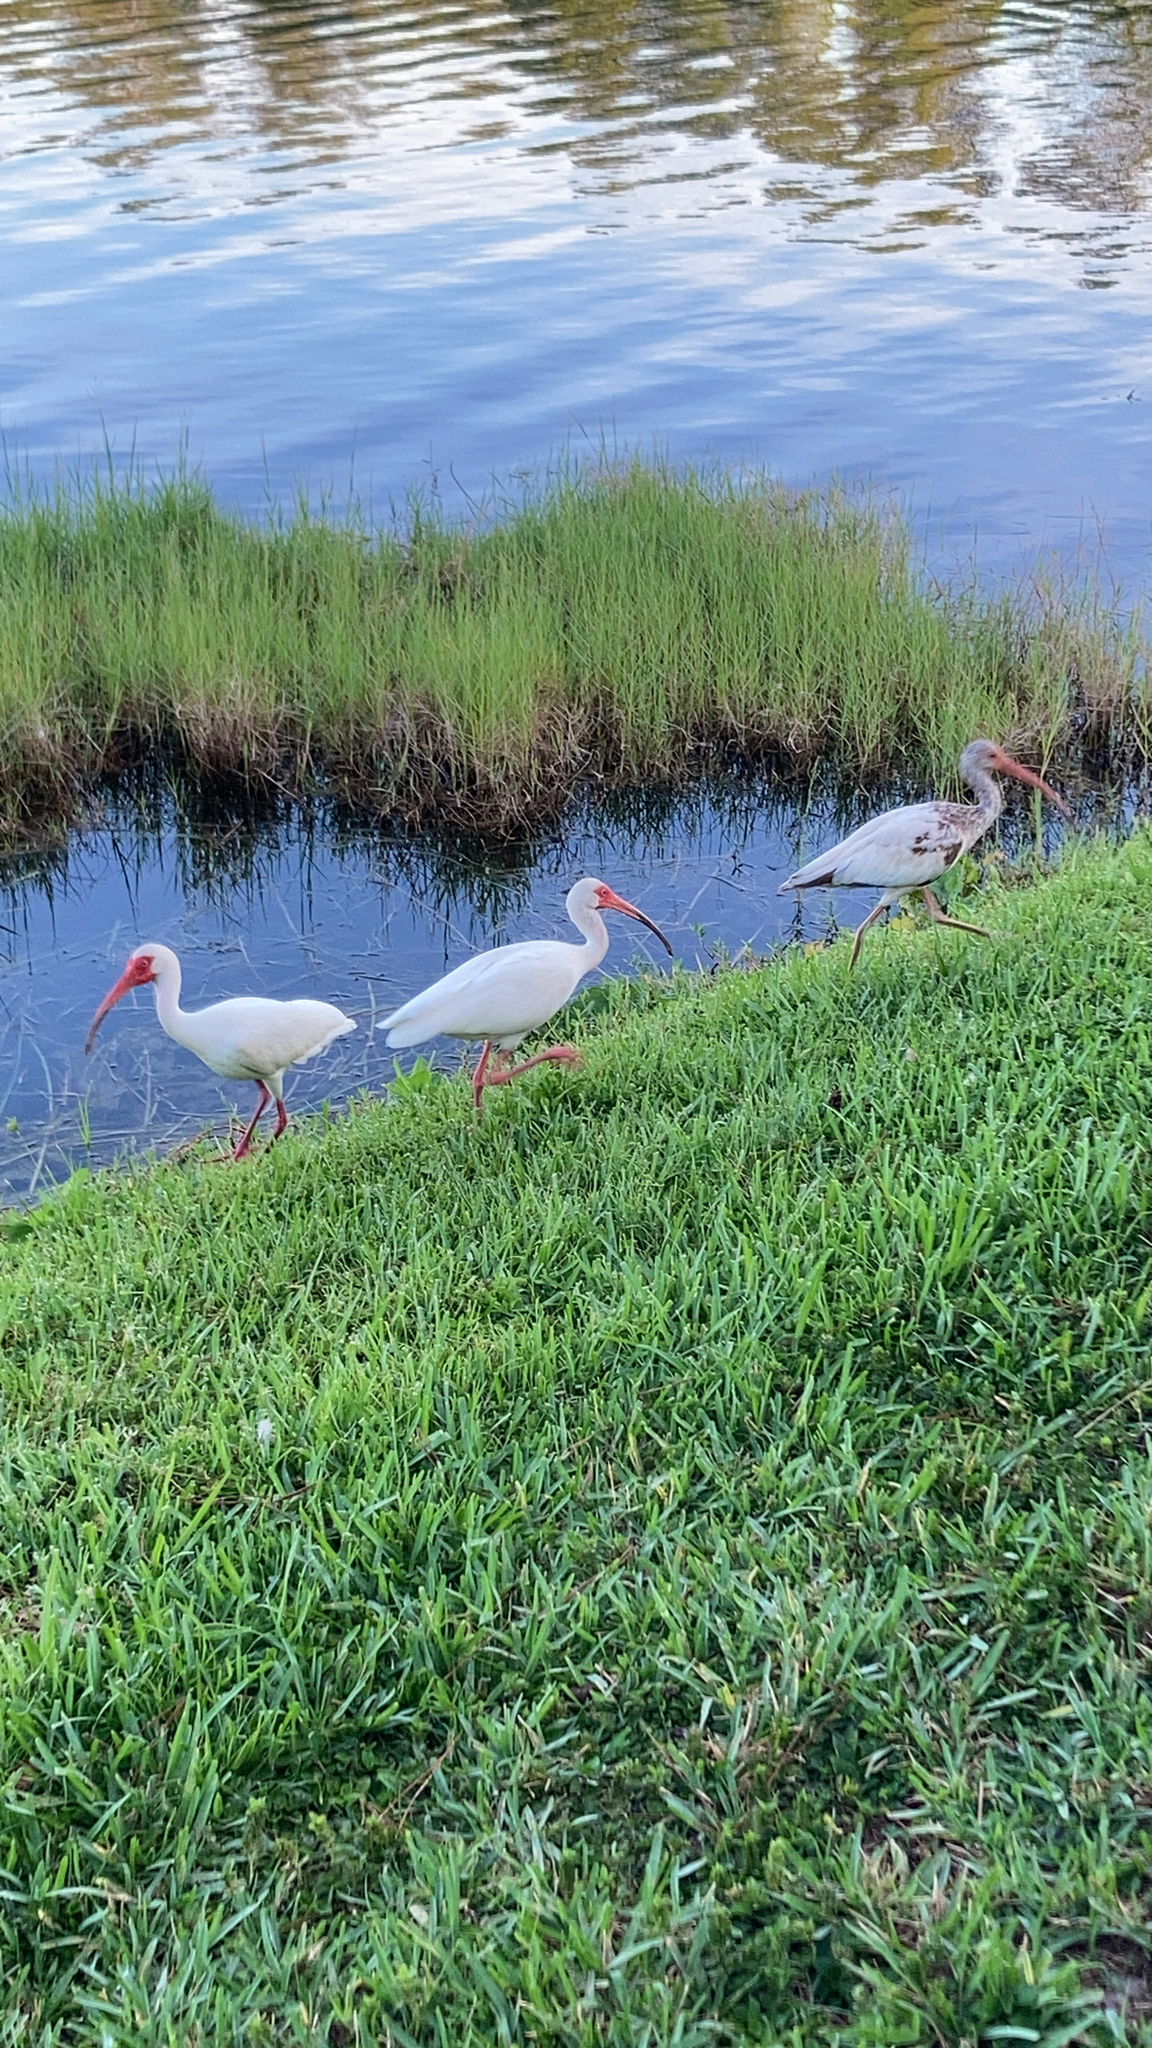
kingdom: Animalia
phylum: Chordata
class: Aves
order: Pelecaniformes
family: Threskiornithidae
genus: Eudocimus
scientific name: Eudocimus albus
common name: White ibis
